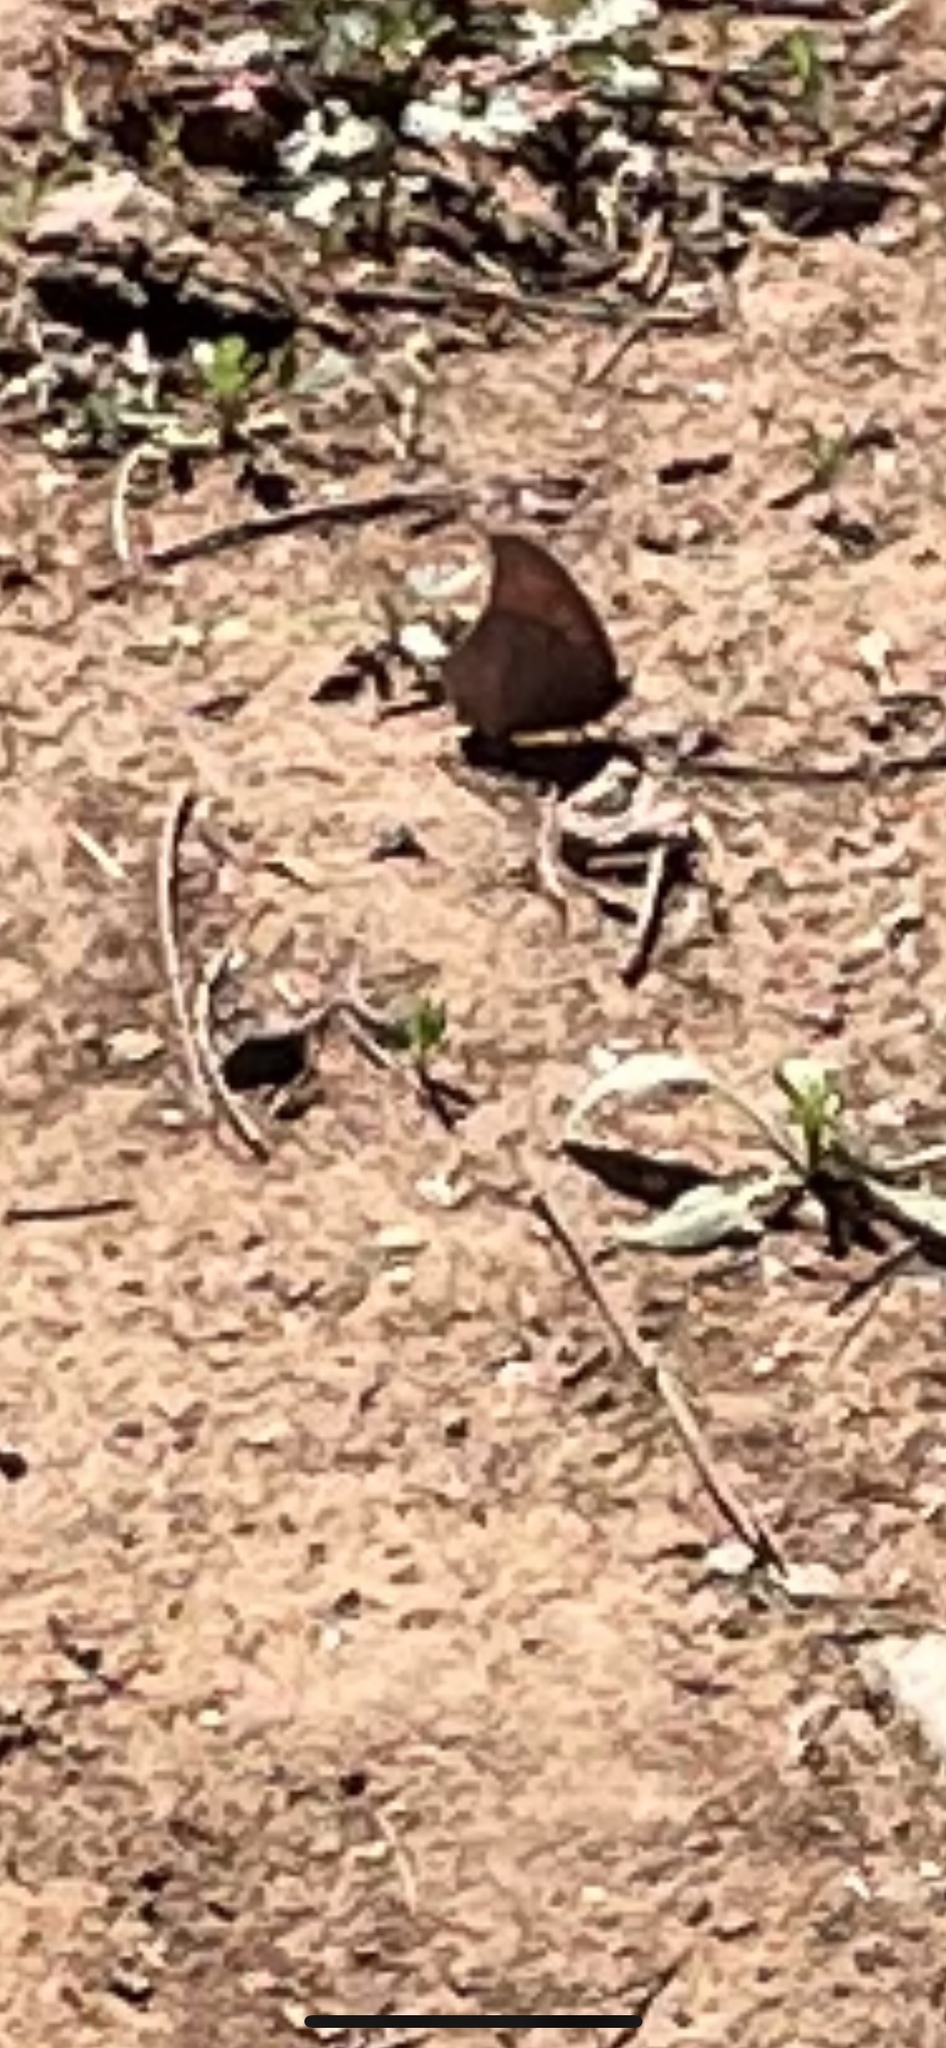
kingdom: Animalia
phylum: Arthropoda
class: Insecta
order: Lepidoptera
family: Nymphalidae
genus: Anaea
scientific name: Anaea andria
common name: Goatweed leafwing
